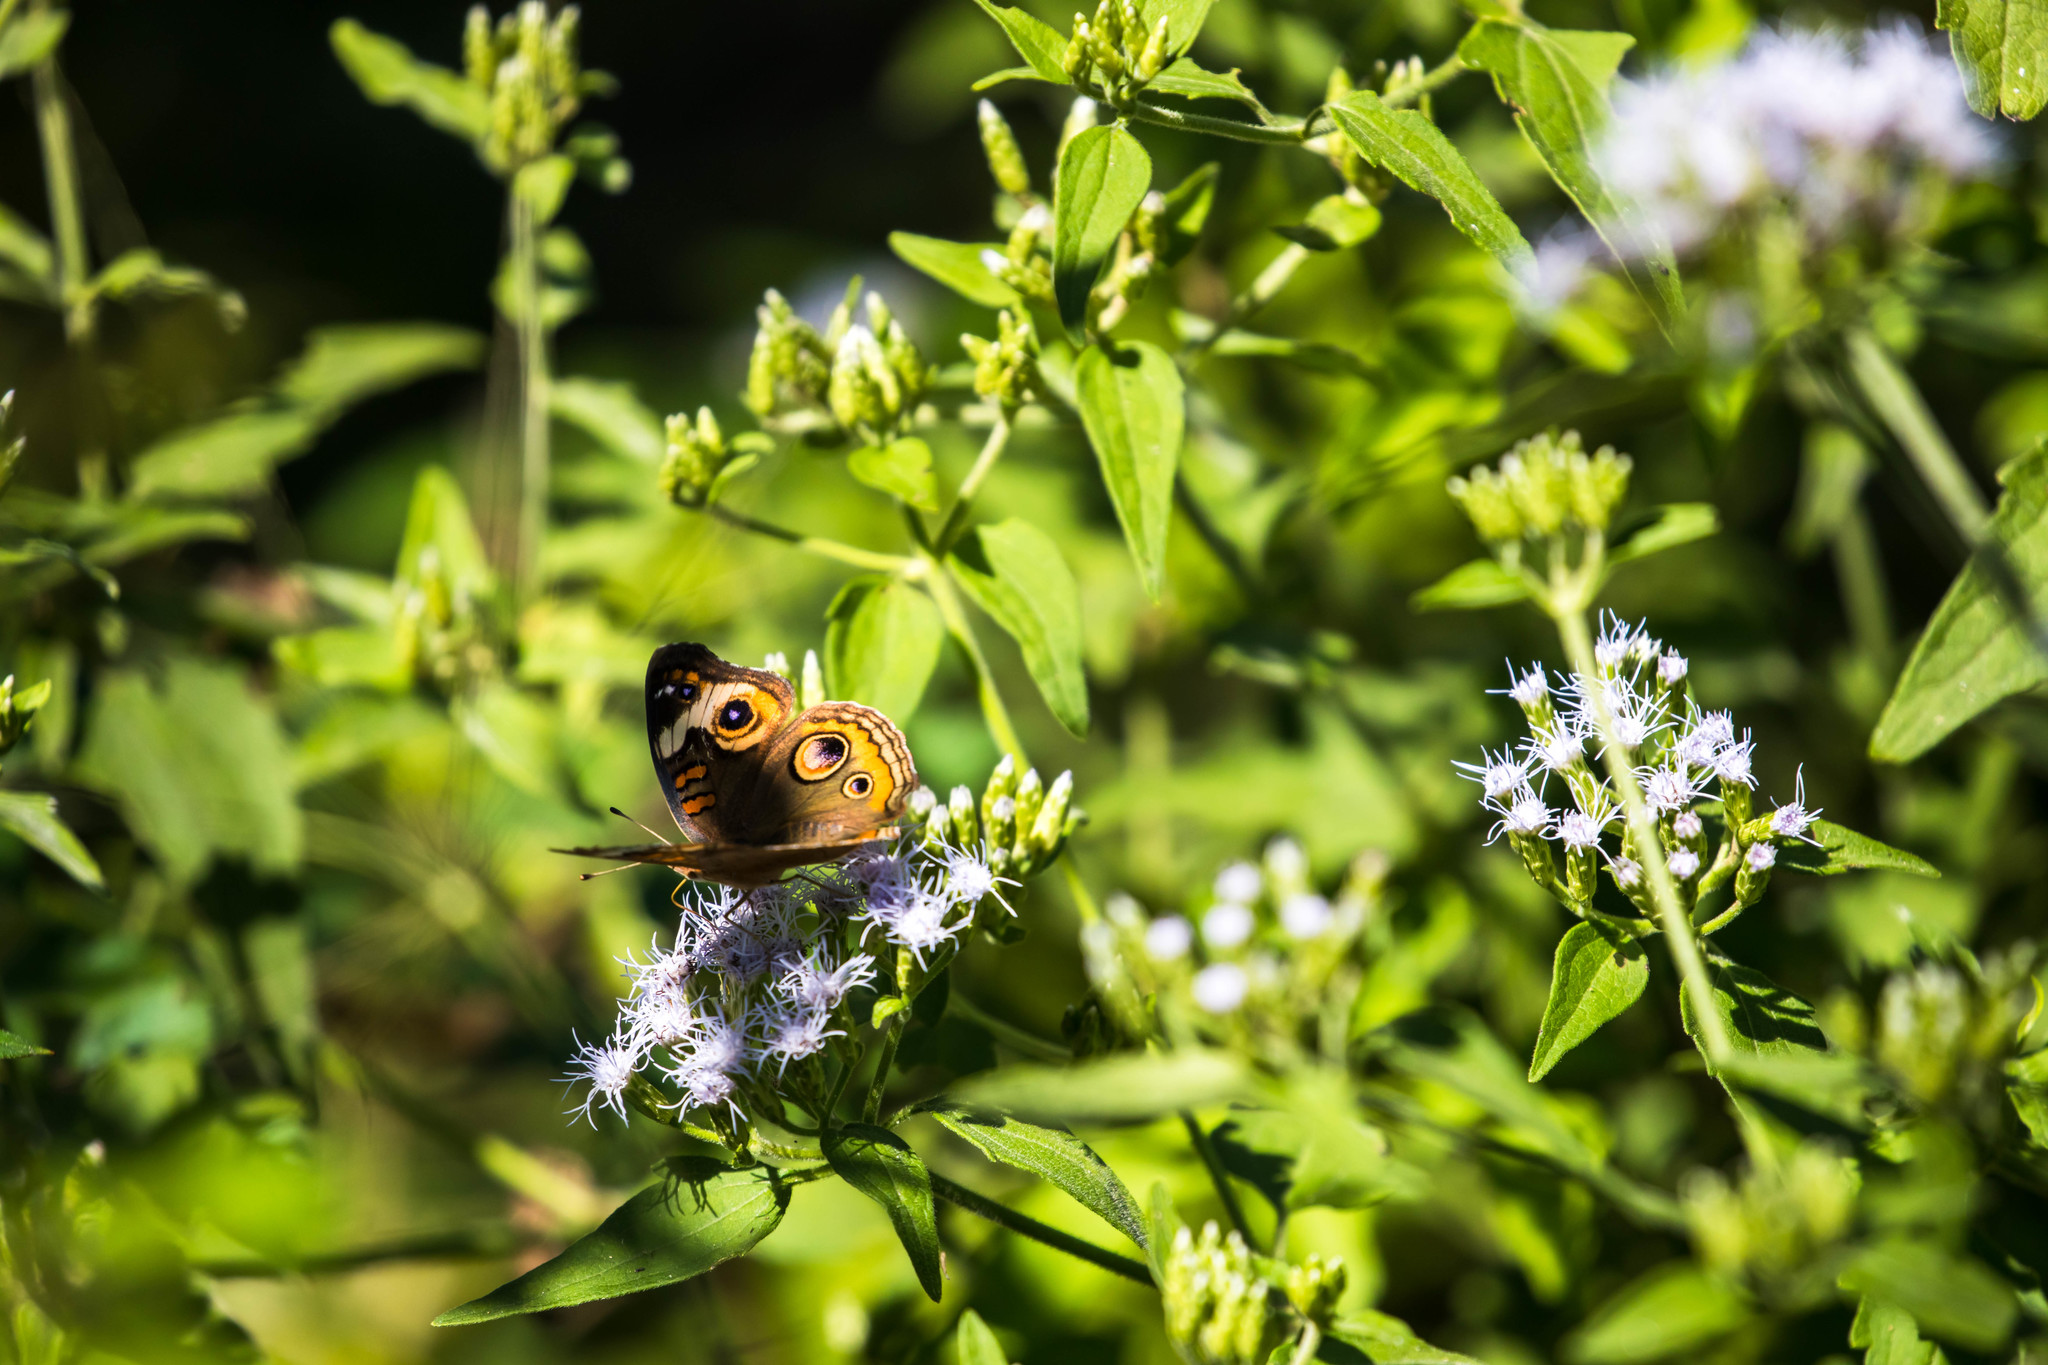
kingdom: Animalia
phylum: Arthropoda
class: Insecta
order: Lepidoptera
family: Nymphalidae
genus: Junonia
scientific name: Junonia coenia
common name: Common buckeye
